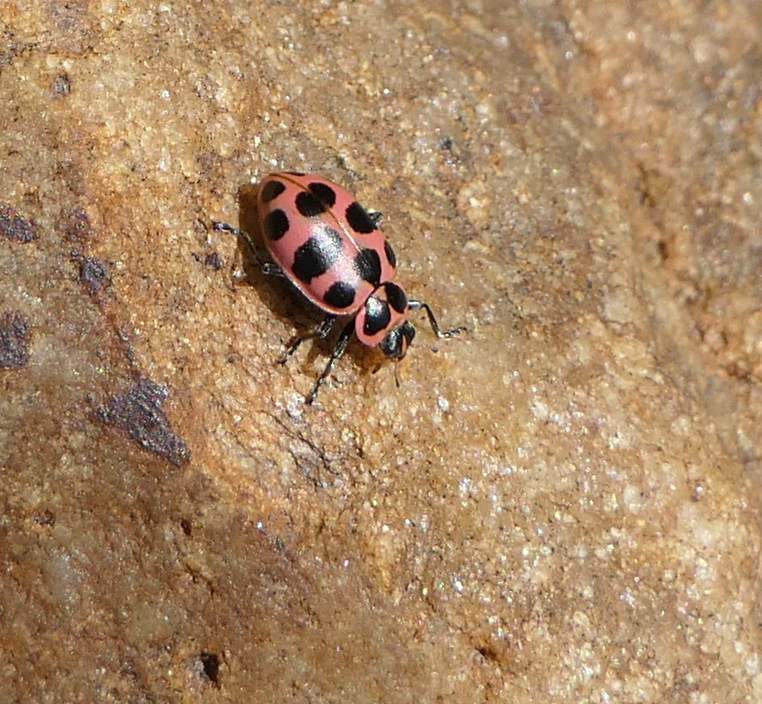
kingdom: Animalia
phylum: Arthropoda
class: Insecta
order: Coleoptera
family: Coccinellidae
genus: Coleomegilla
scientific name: Coleomegilla maculata
